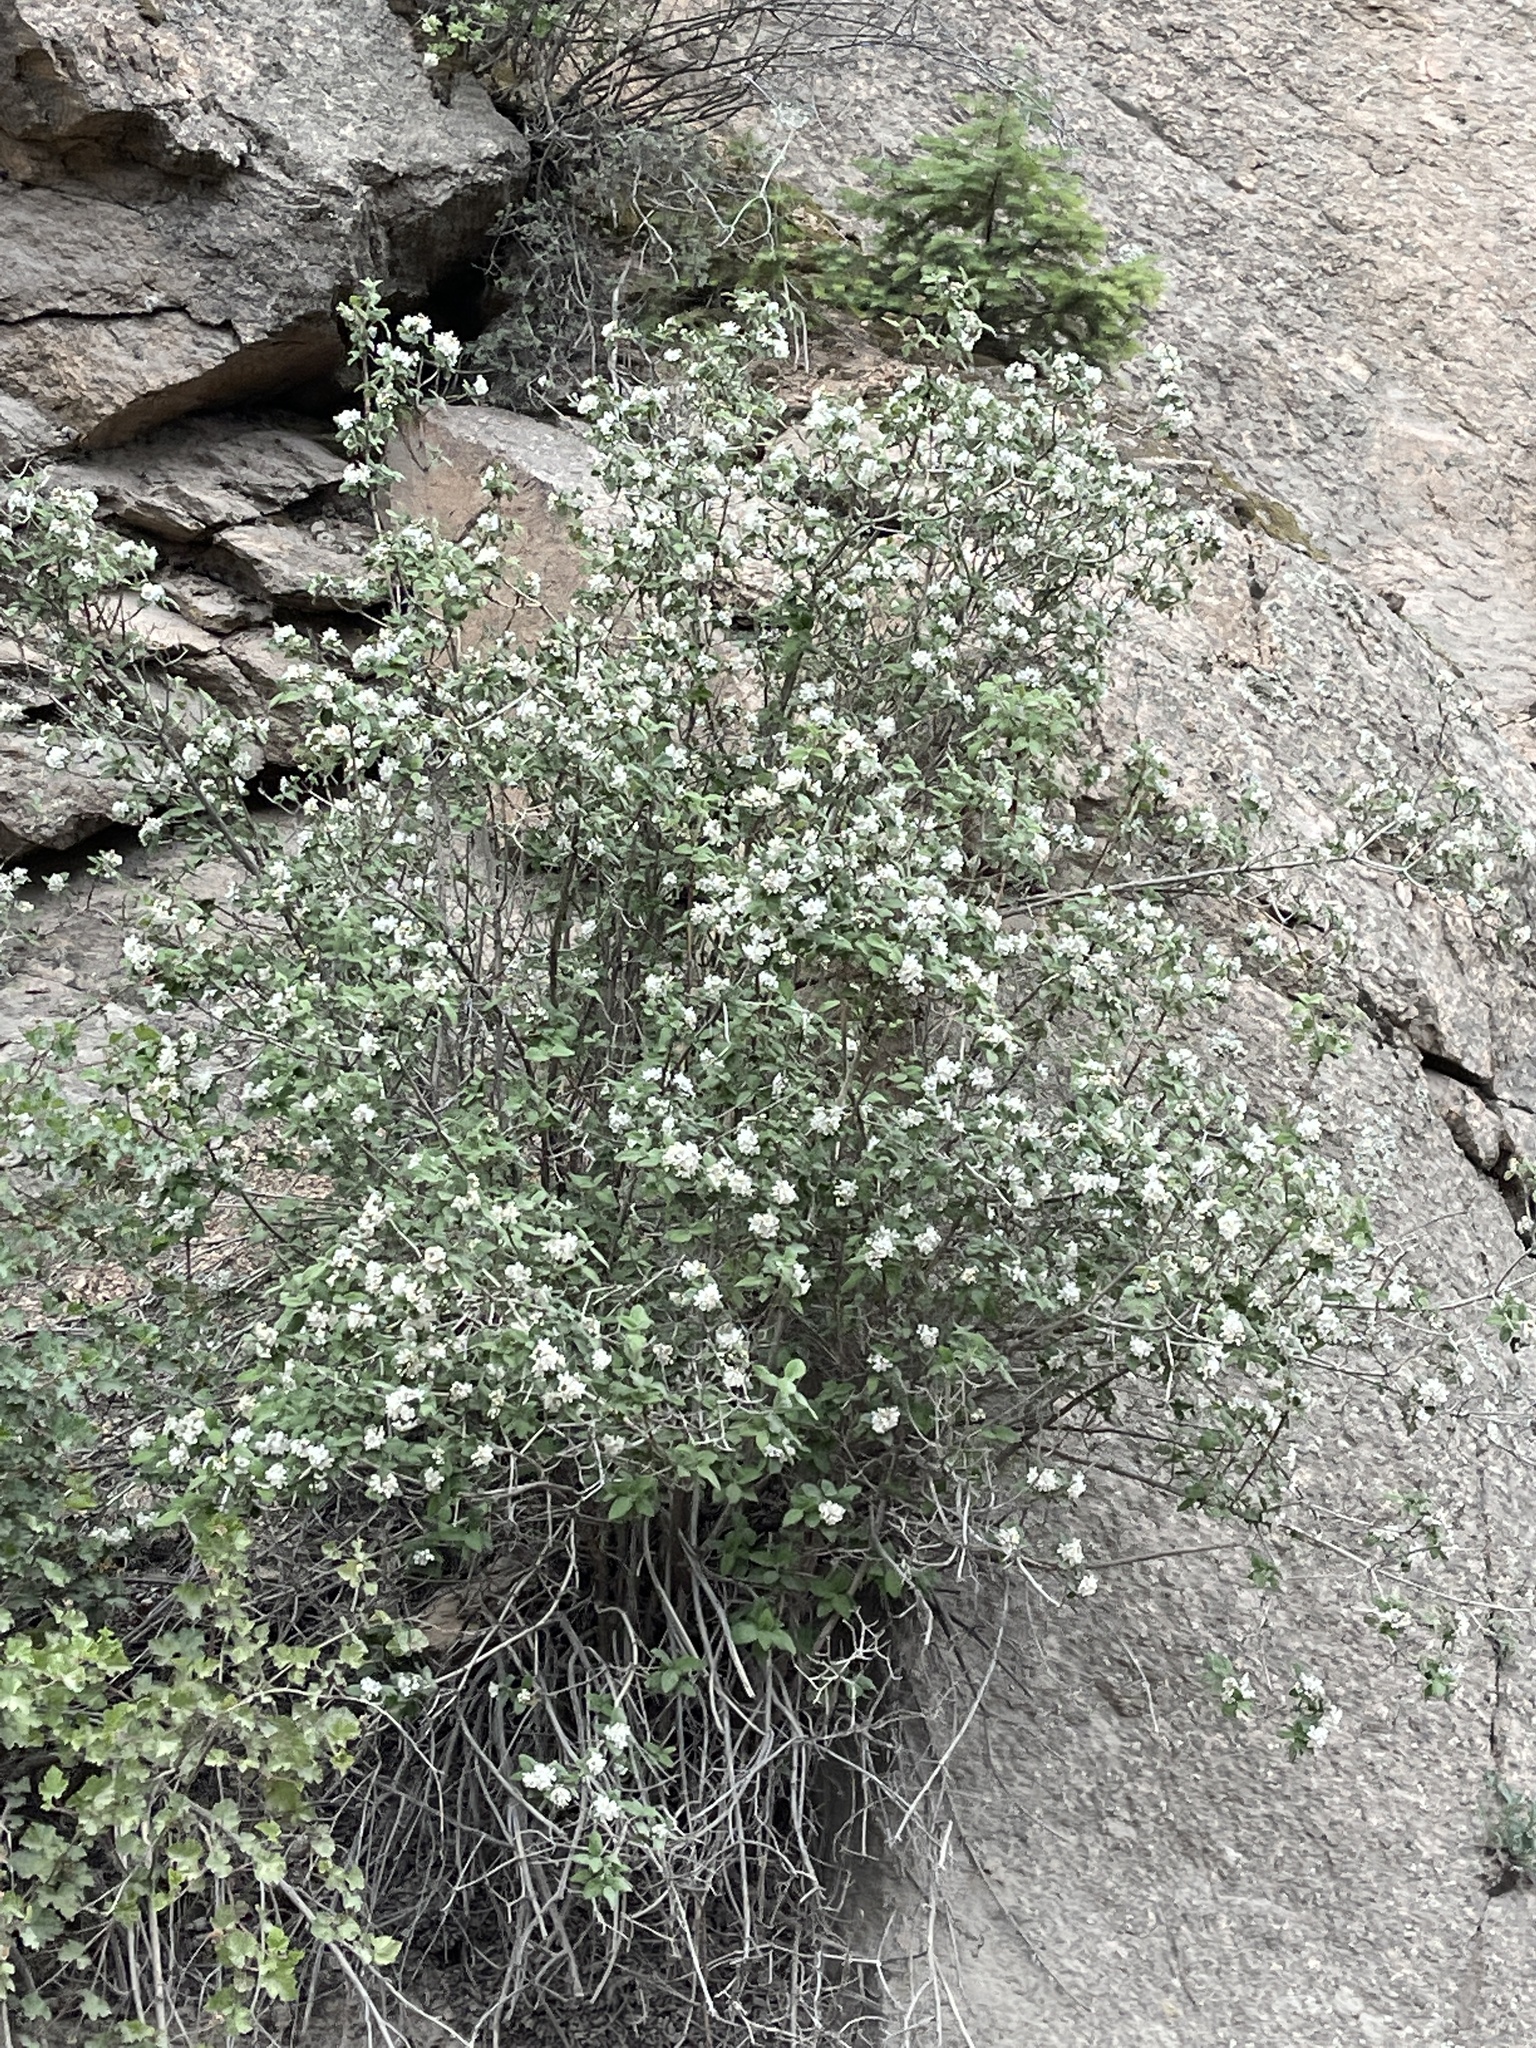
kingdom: Plantae
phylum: Tracheophyta
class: Magnoliopsida
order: Cornales
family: Hydrangeaceae
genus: Jamesia
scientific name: Jamesia americana
